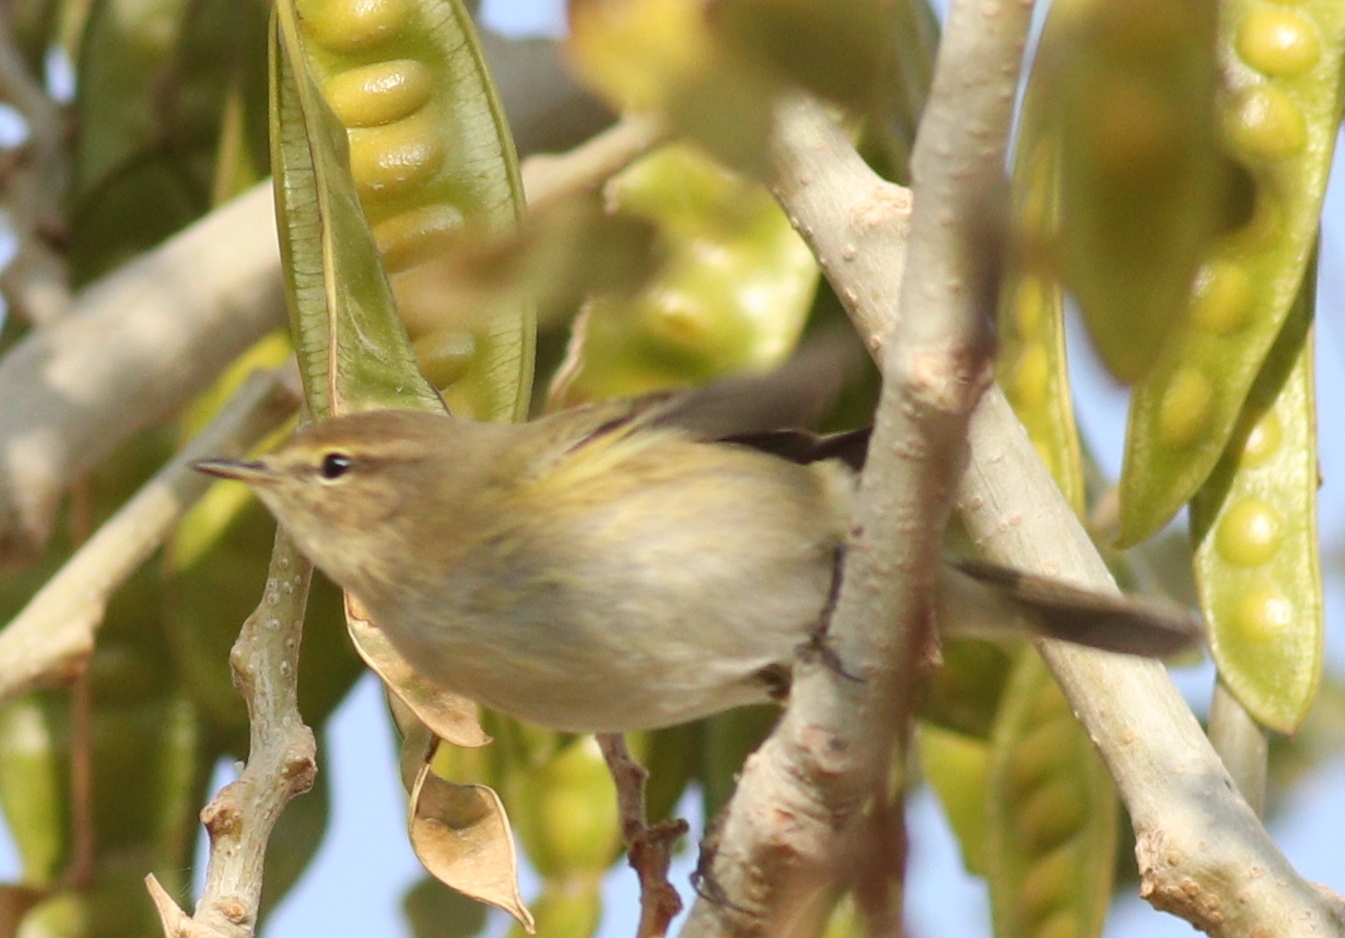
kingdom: Animalia
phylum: Chordata
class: Aves
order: Passeriformes
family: Phylloscopidae
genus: Phylloscopus
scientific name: Phylloscopus collybita
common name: Common chiffchaff
